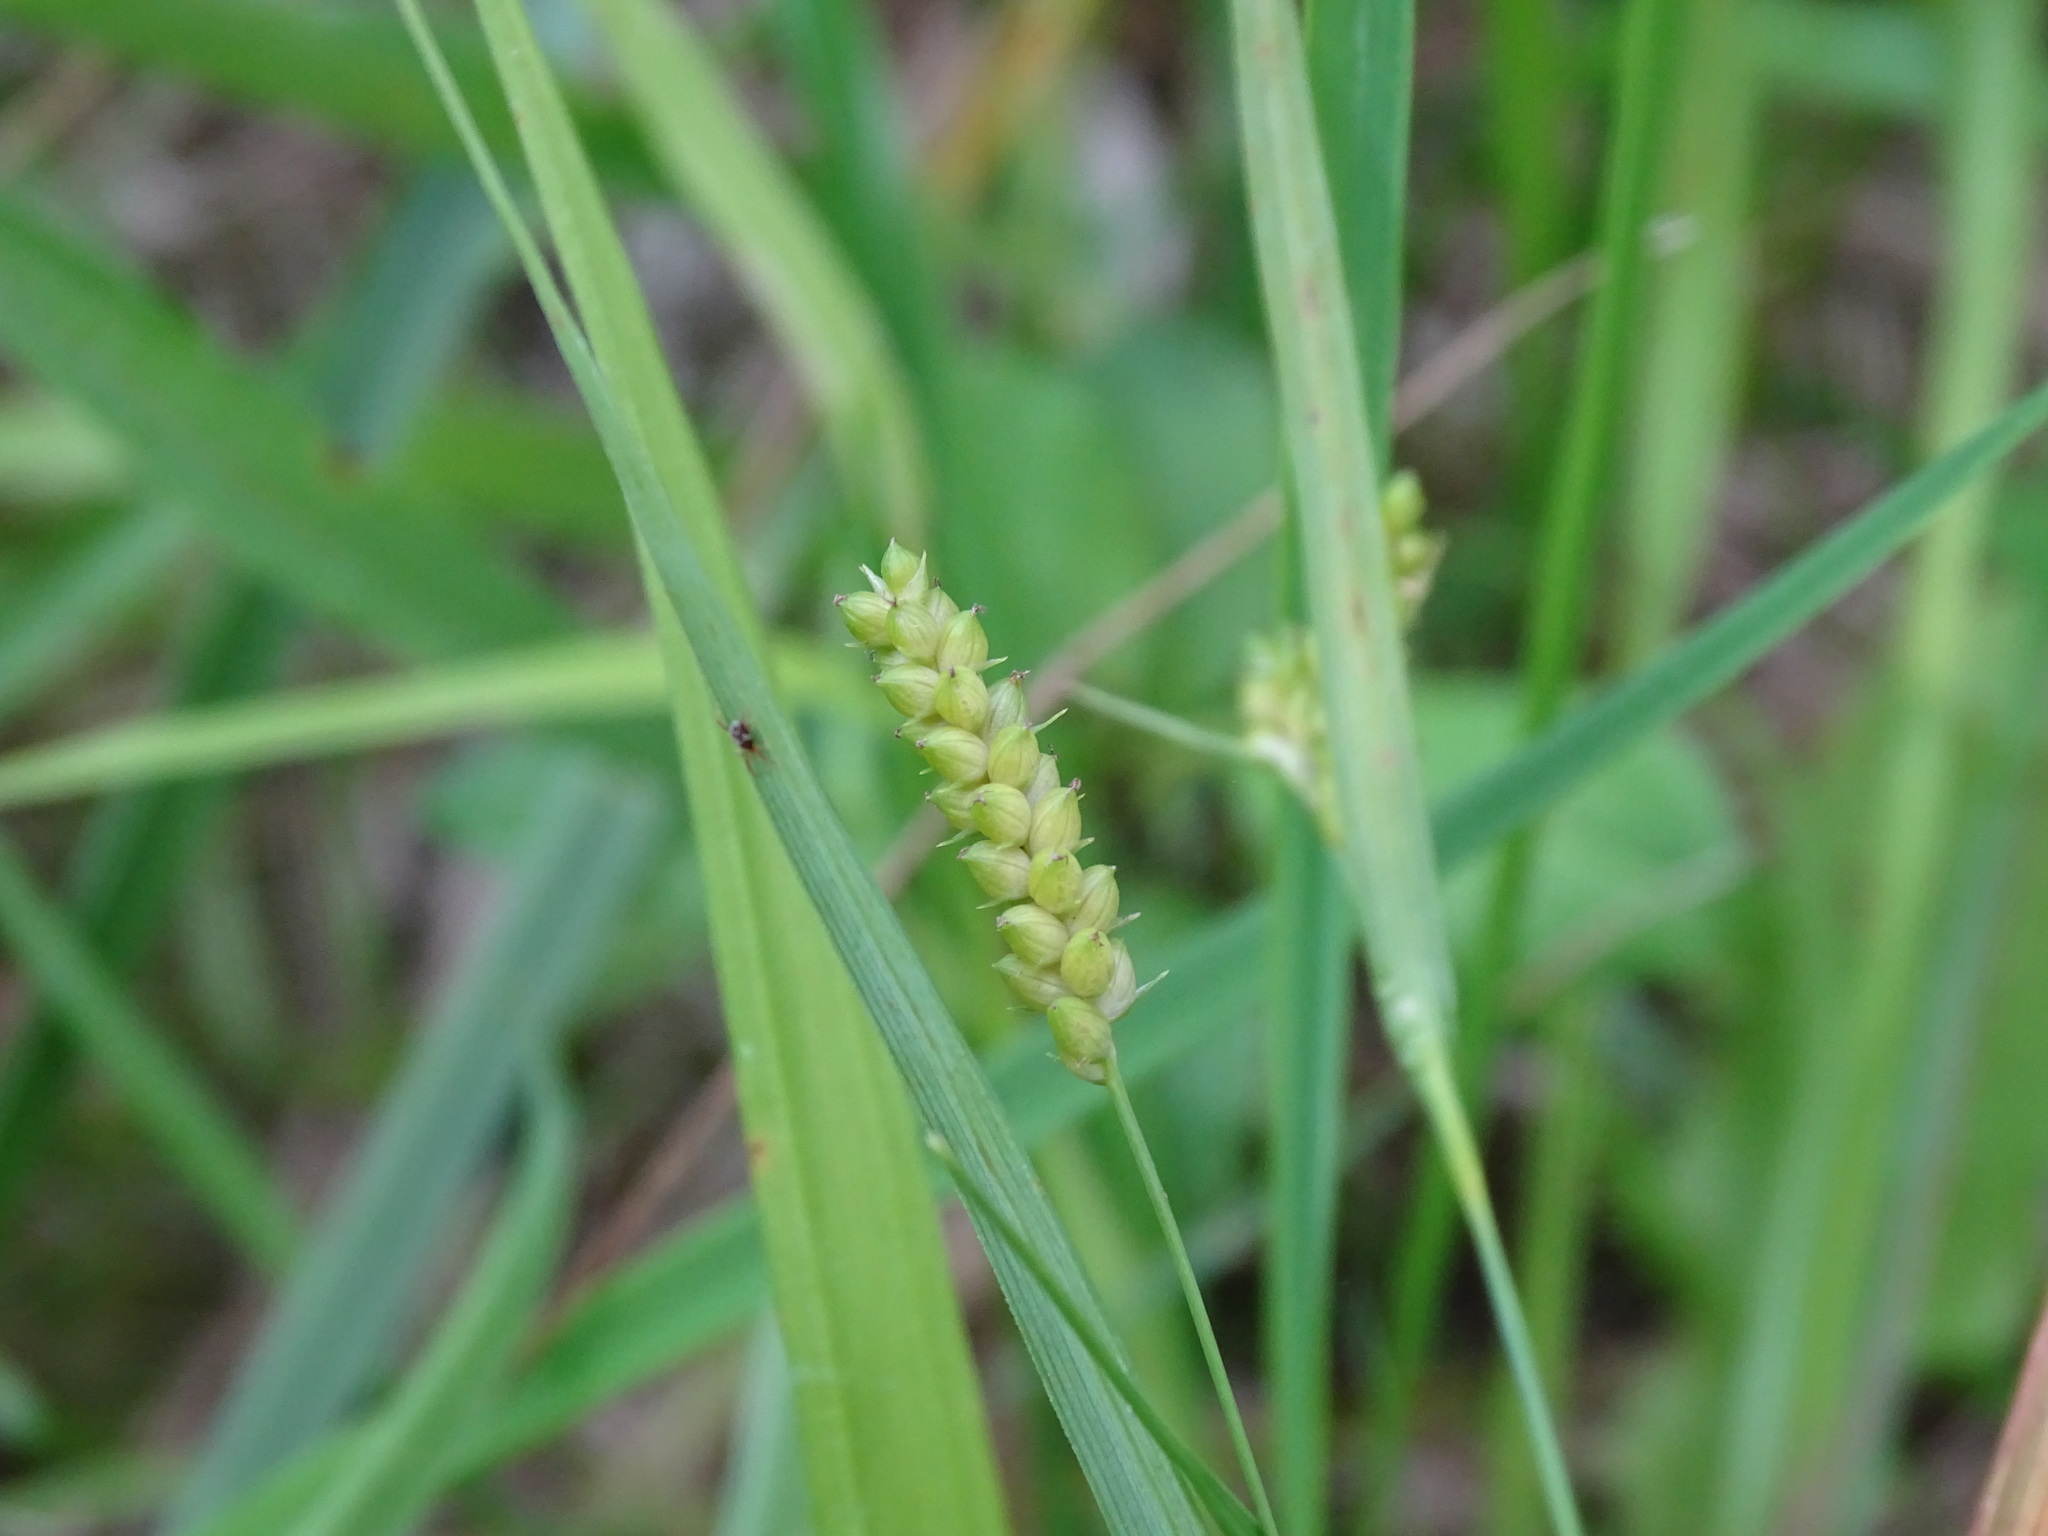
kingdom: Plantae
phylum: Tracheophyta
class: Liliopsida
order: Poales
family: Cyperaceae
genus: Carex
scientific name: Carex granularis
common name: Granular sedge
